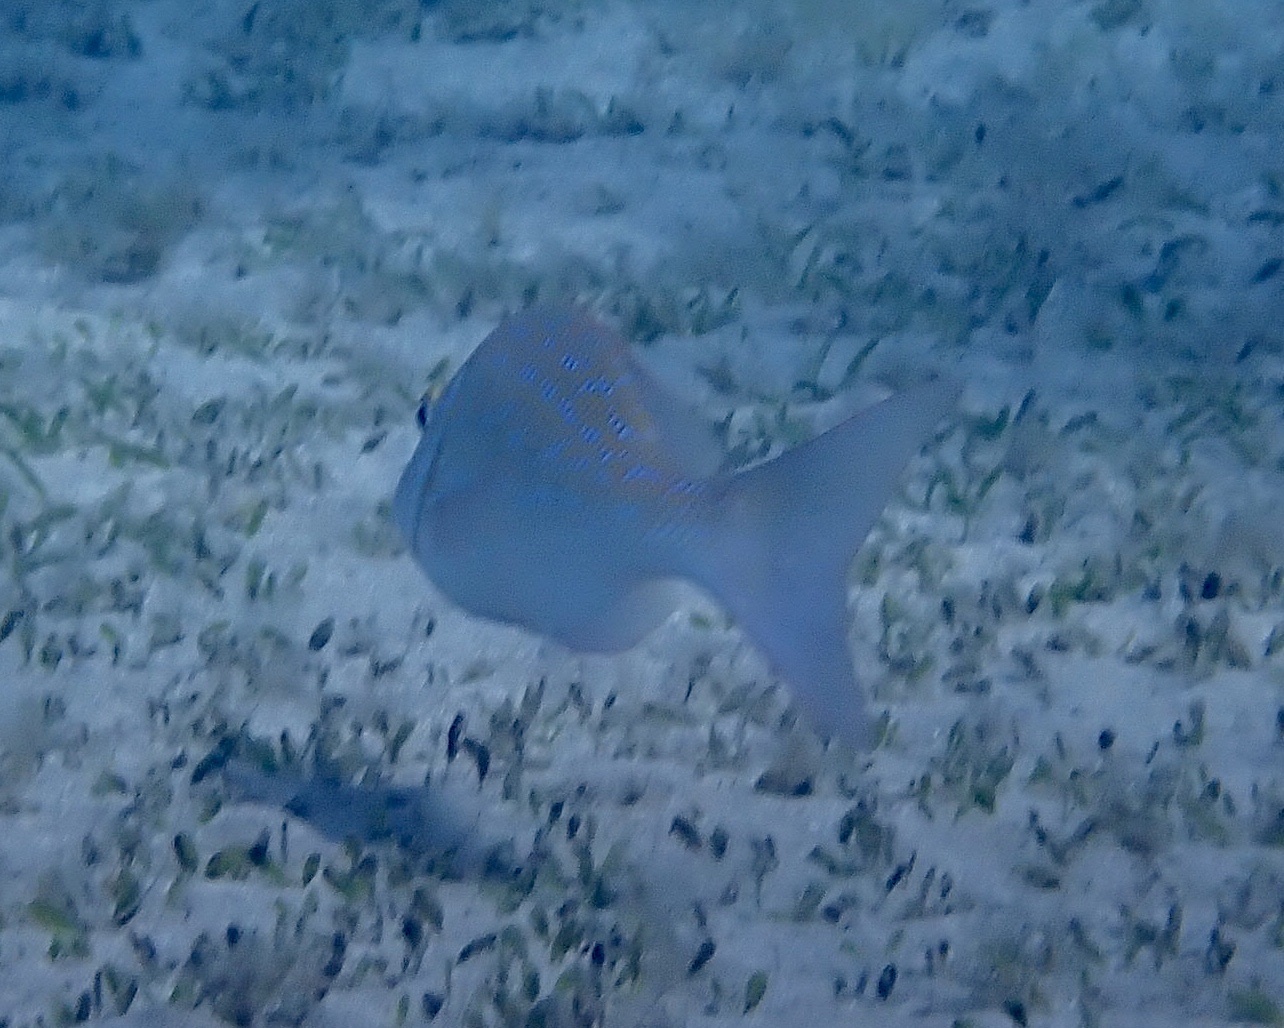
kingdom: Animalia
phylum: Chordata
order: Perciformes
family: Lethrinidae
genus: Lethrinus
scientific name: Lethrinus nebulosus
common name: Spangled emperor
